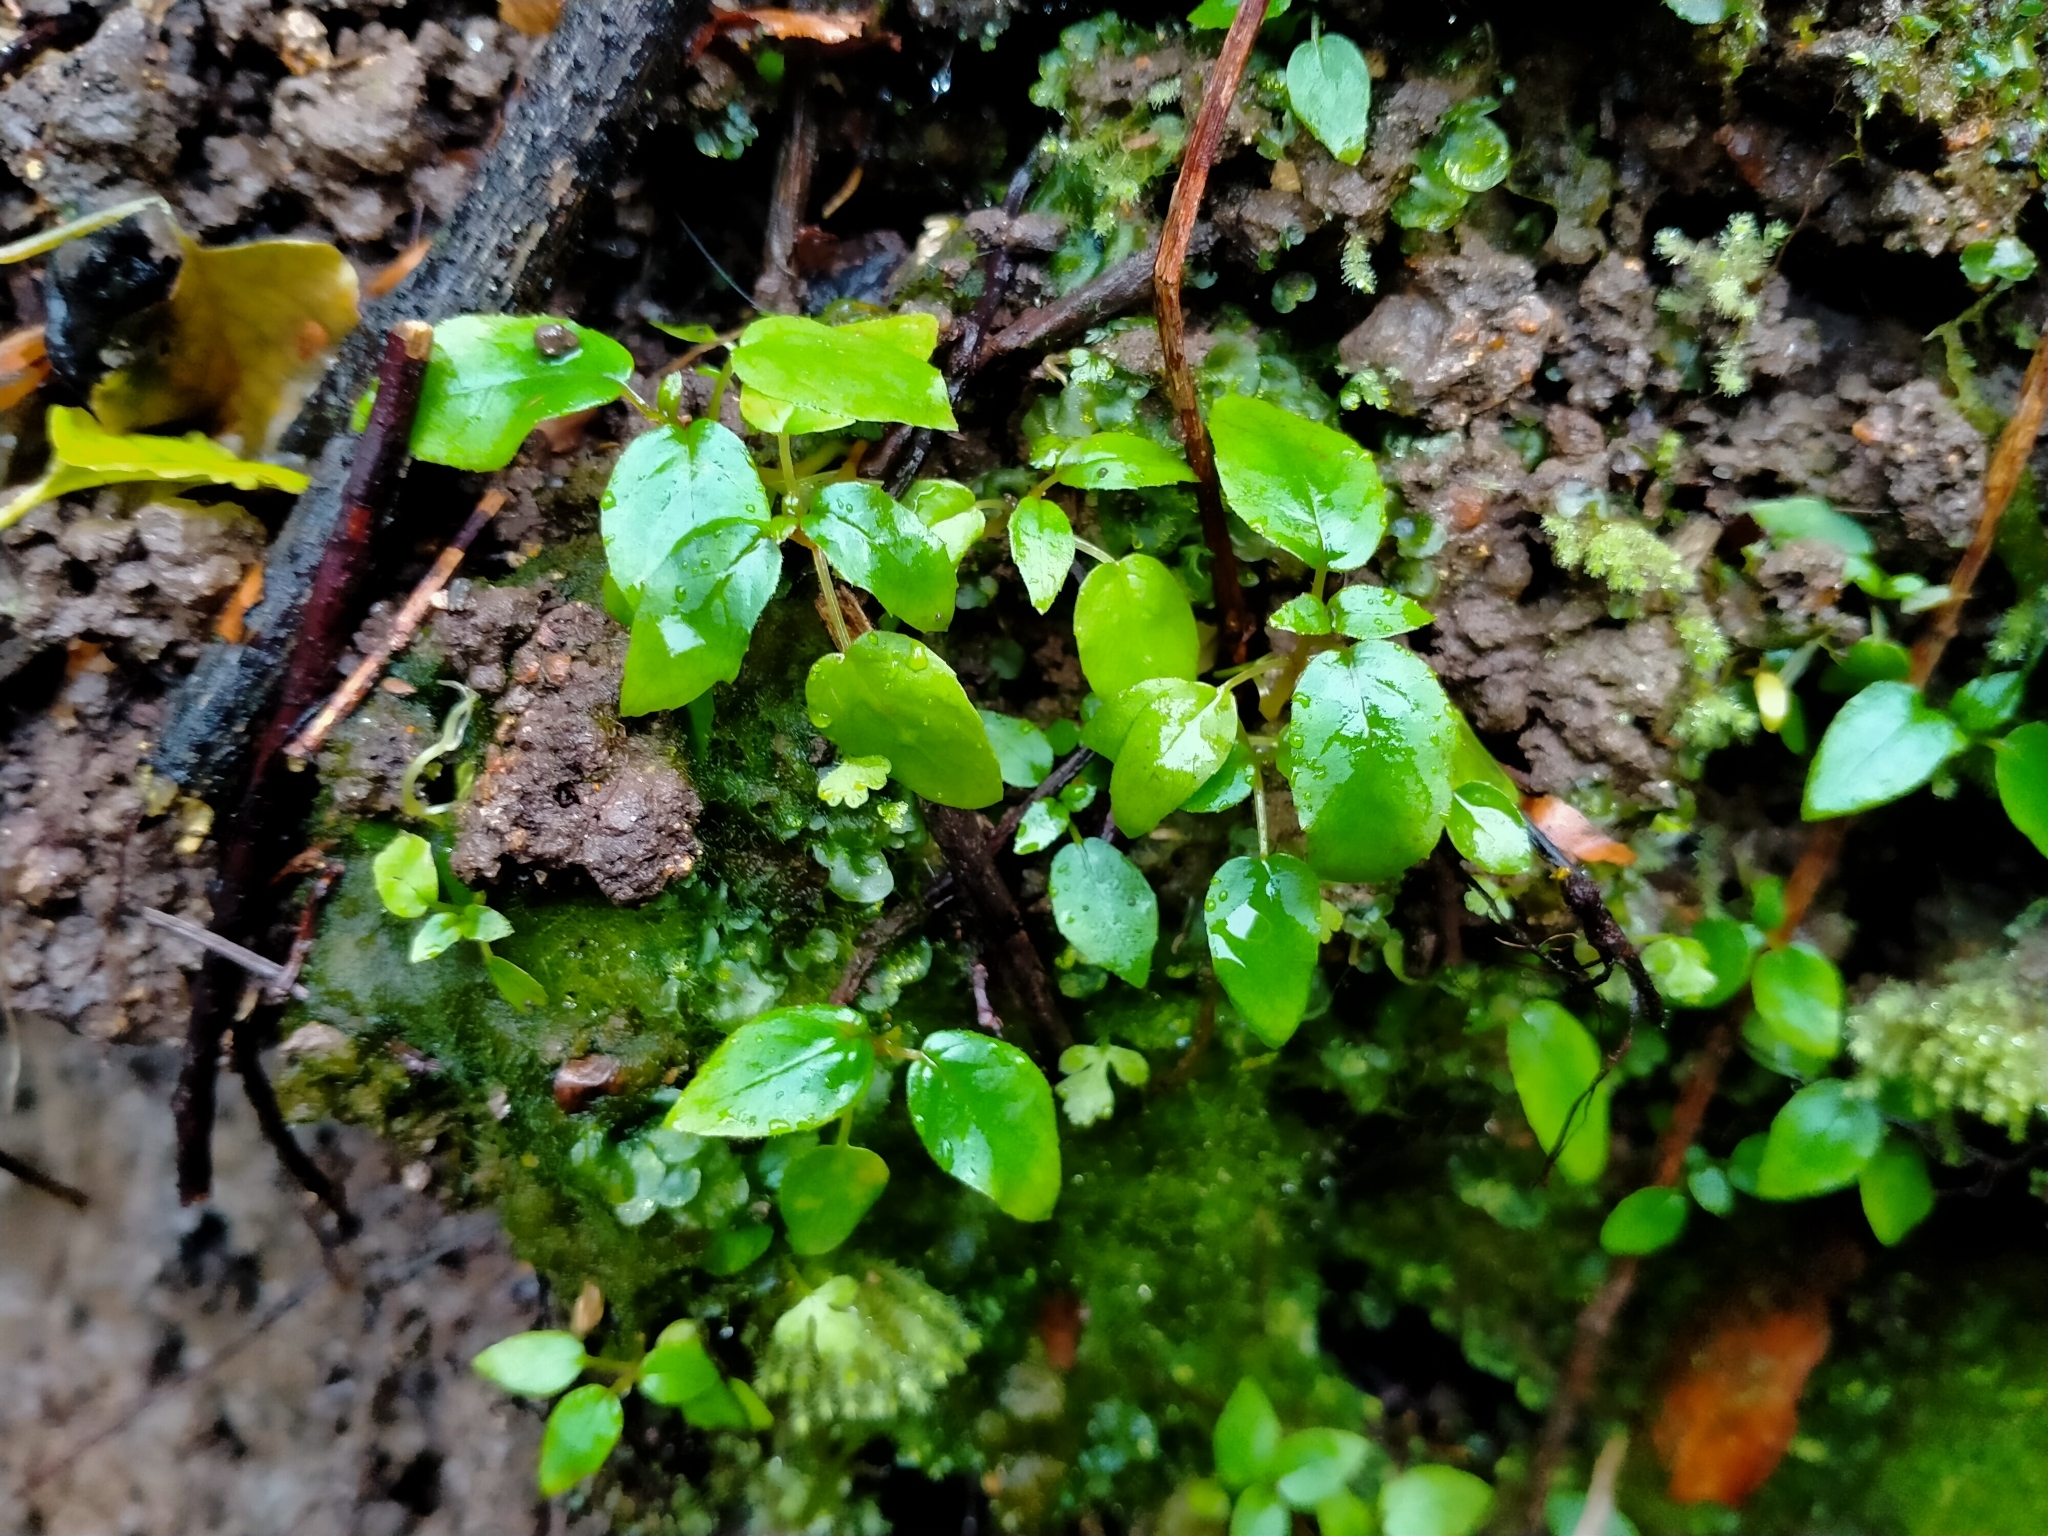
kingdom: Plantae
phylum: Tracheophyta
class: Magnoliopsida
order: Myrtales
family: Onagraceae
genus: Fuchsia
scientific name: Fuchsia excorticata
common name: Tree fuchsia
